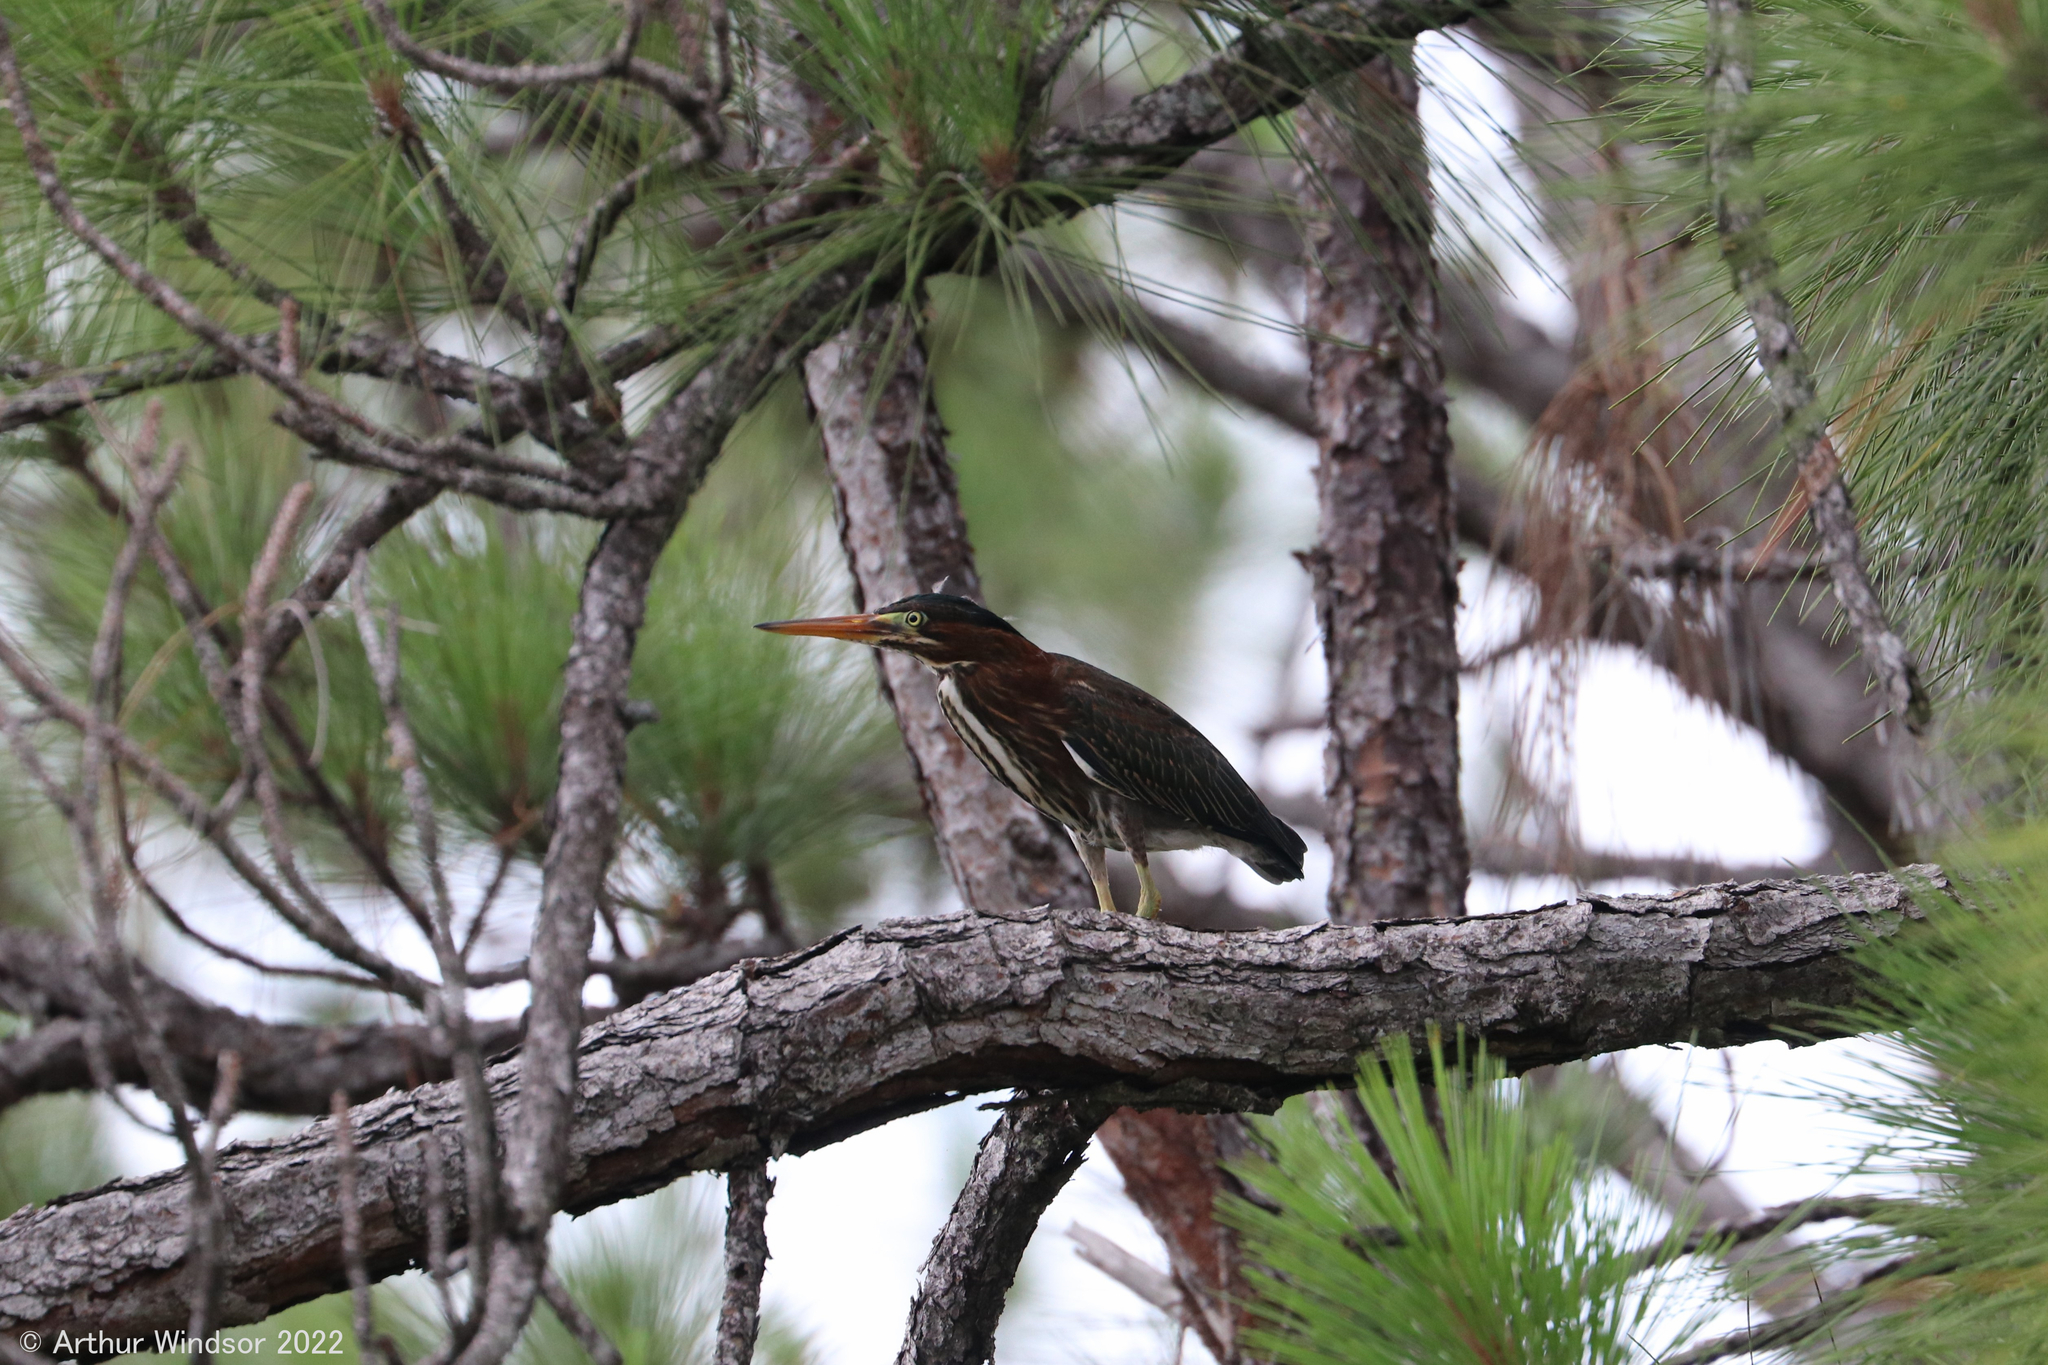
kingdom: Animalia
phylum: Chordata
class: Aves
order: Pelecaniformes
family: Ardeidae
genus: Butorides
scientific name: Butorides virescens
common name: Green heron
